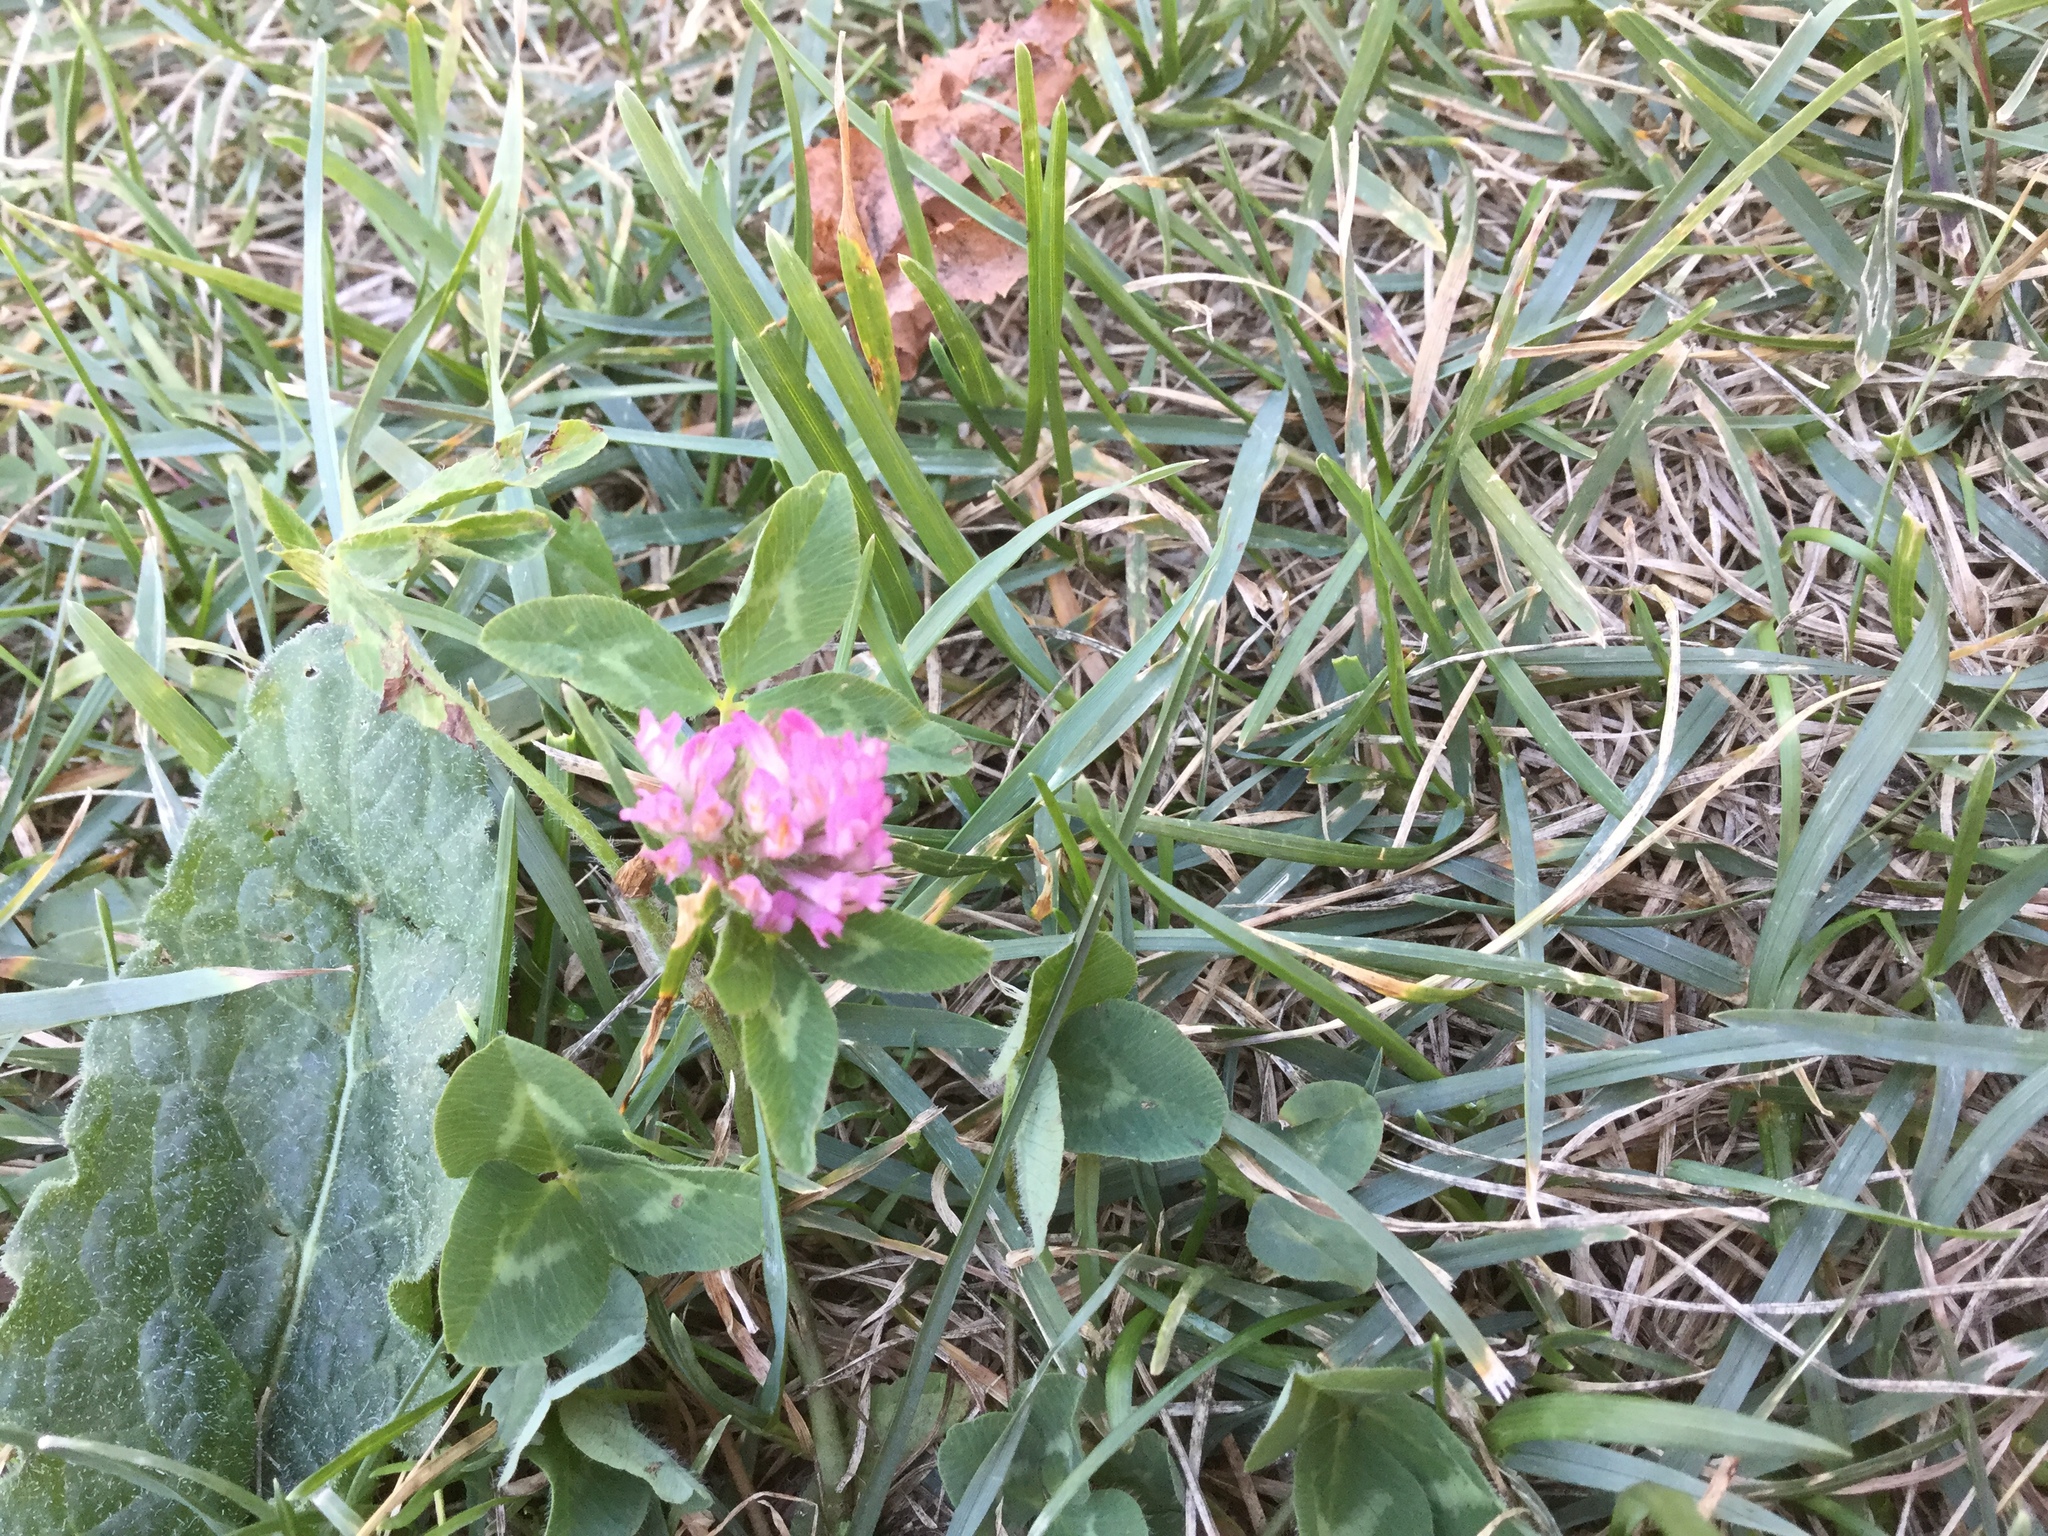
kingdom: Plantae
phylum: Tracheophyta
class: Magnoliopsida
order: Fabales
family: Fabaceae
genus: Trifolium
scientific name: Trifolium pratense
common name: Red clover
